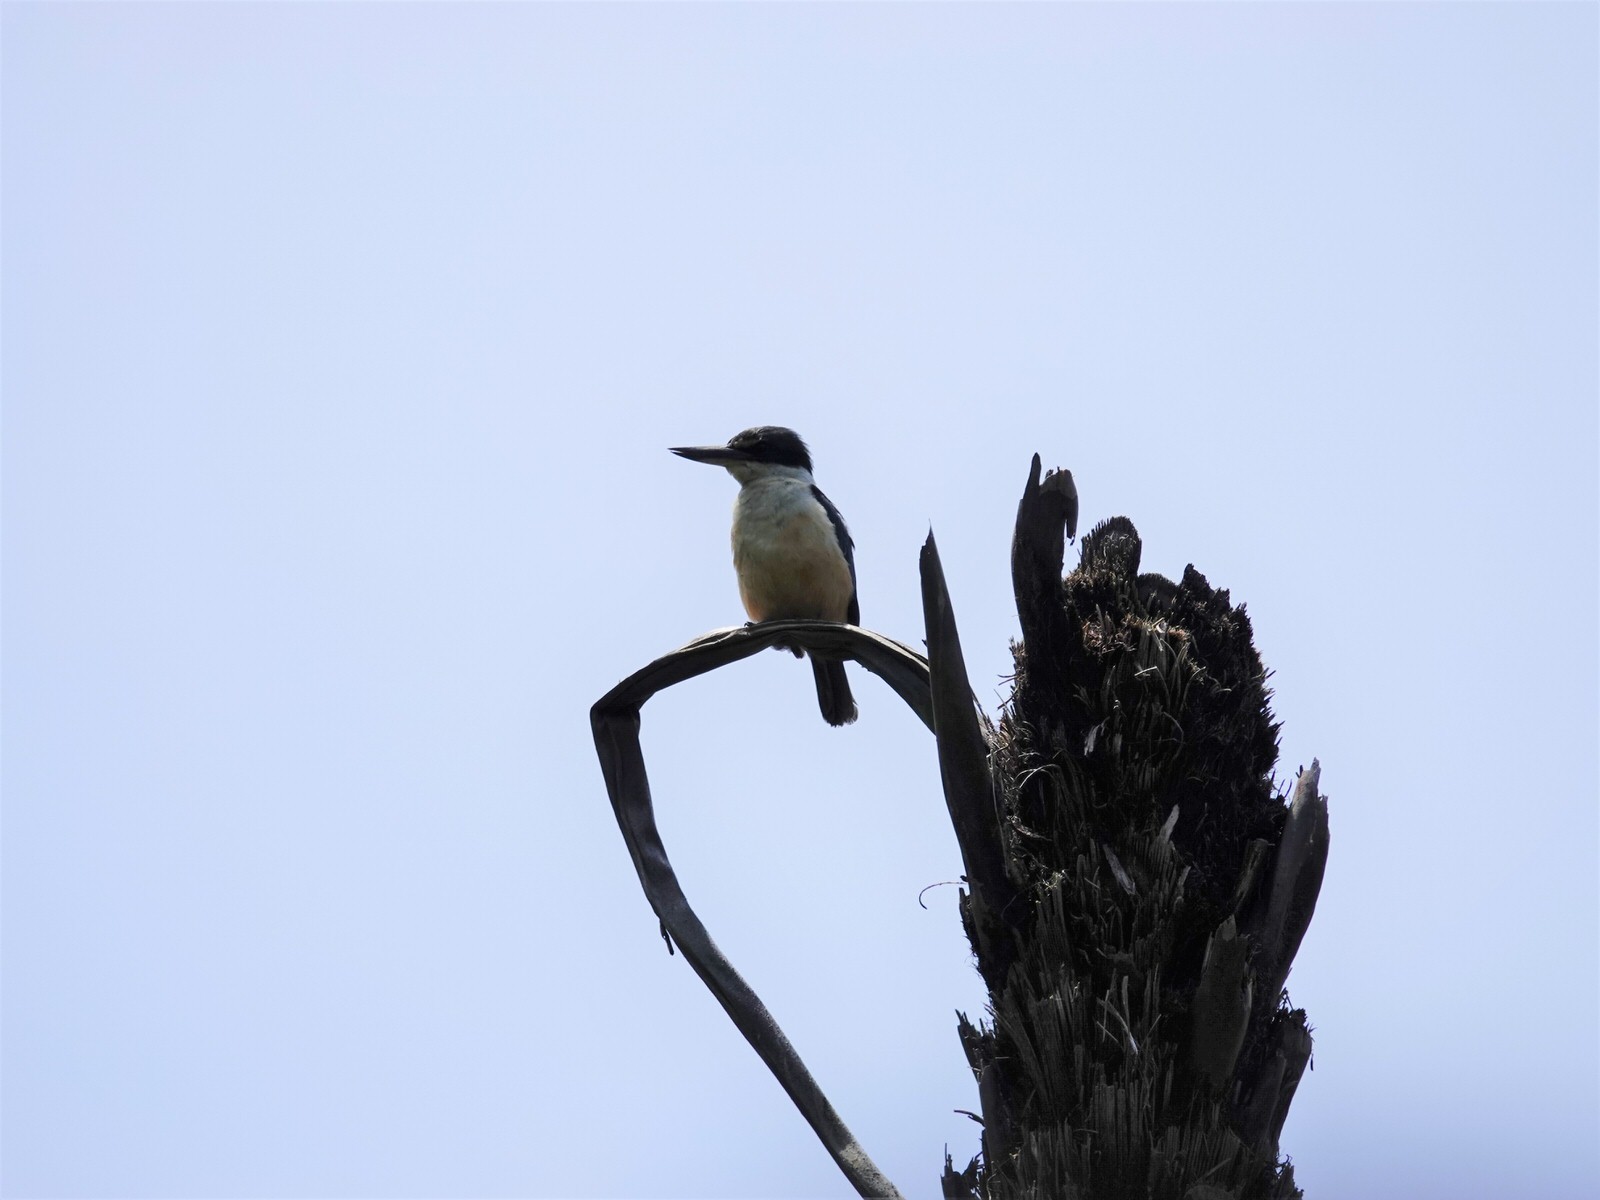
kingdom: Animalia
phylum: Chordata
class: Aves
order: Coraciiformes
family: Alcedinidae
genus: Todiramphus
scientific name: Todiramphus sanctus
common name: Sacred kingfisher
